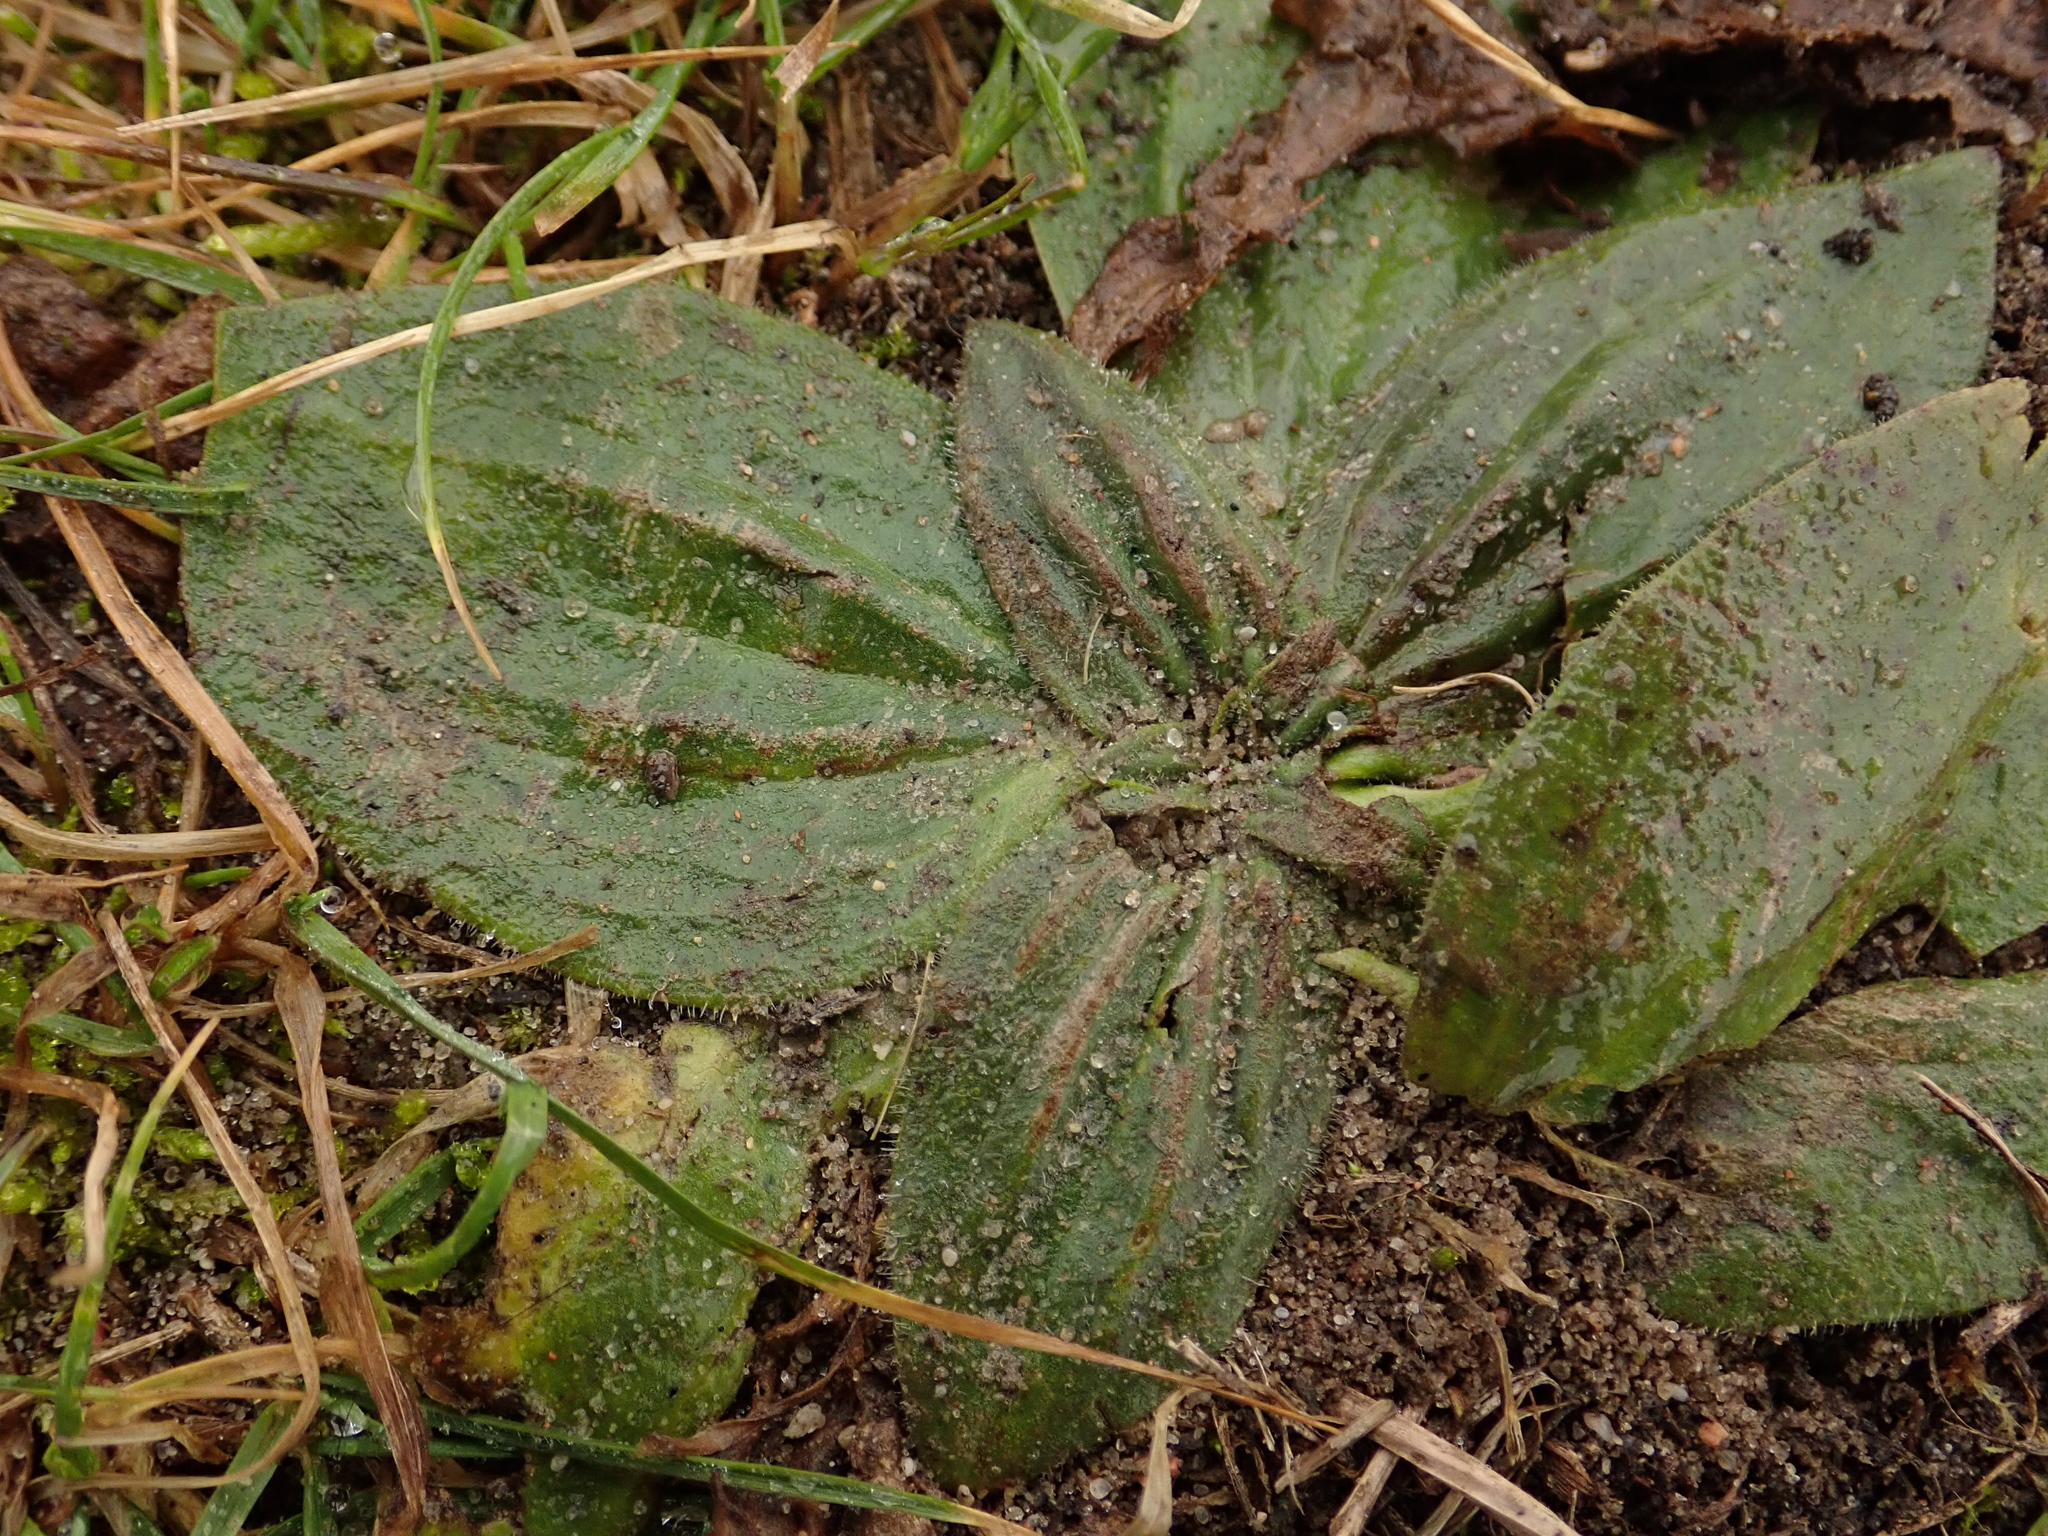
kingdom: Plantae
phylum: Tracheophyta
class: Magnoliopsida
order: Lamiales
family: Plantaginaceae
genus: Plantago
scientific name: Plantago media
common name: Hoary plantain
